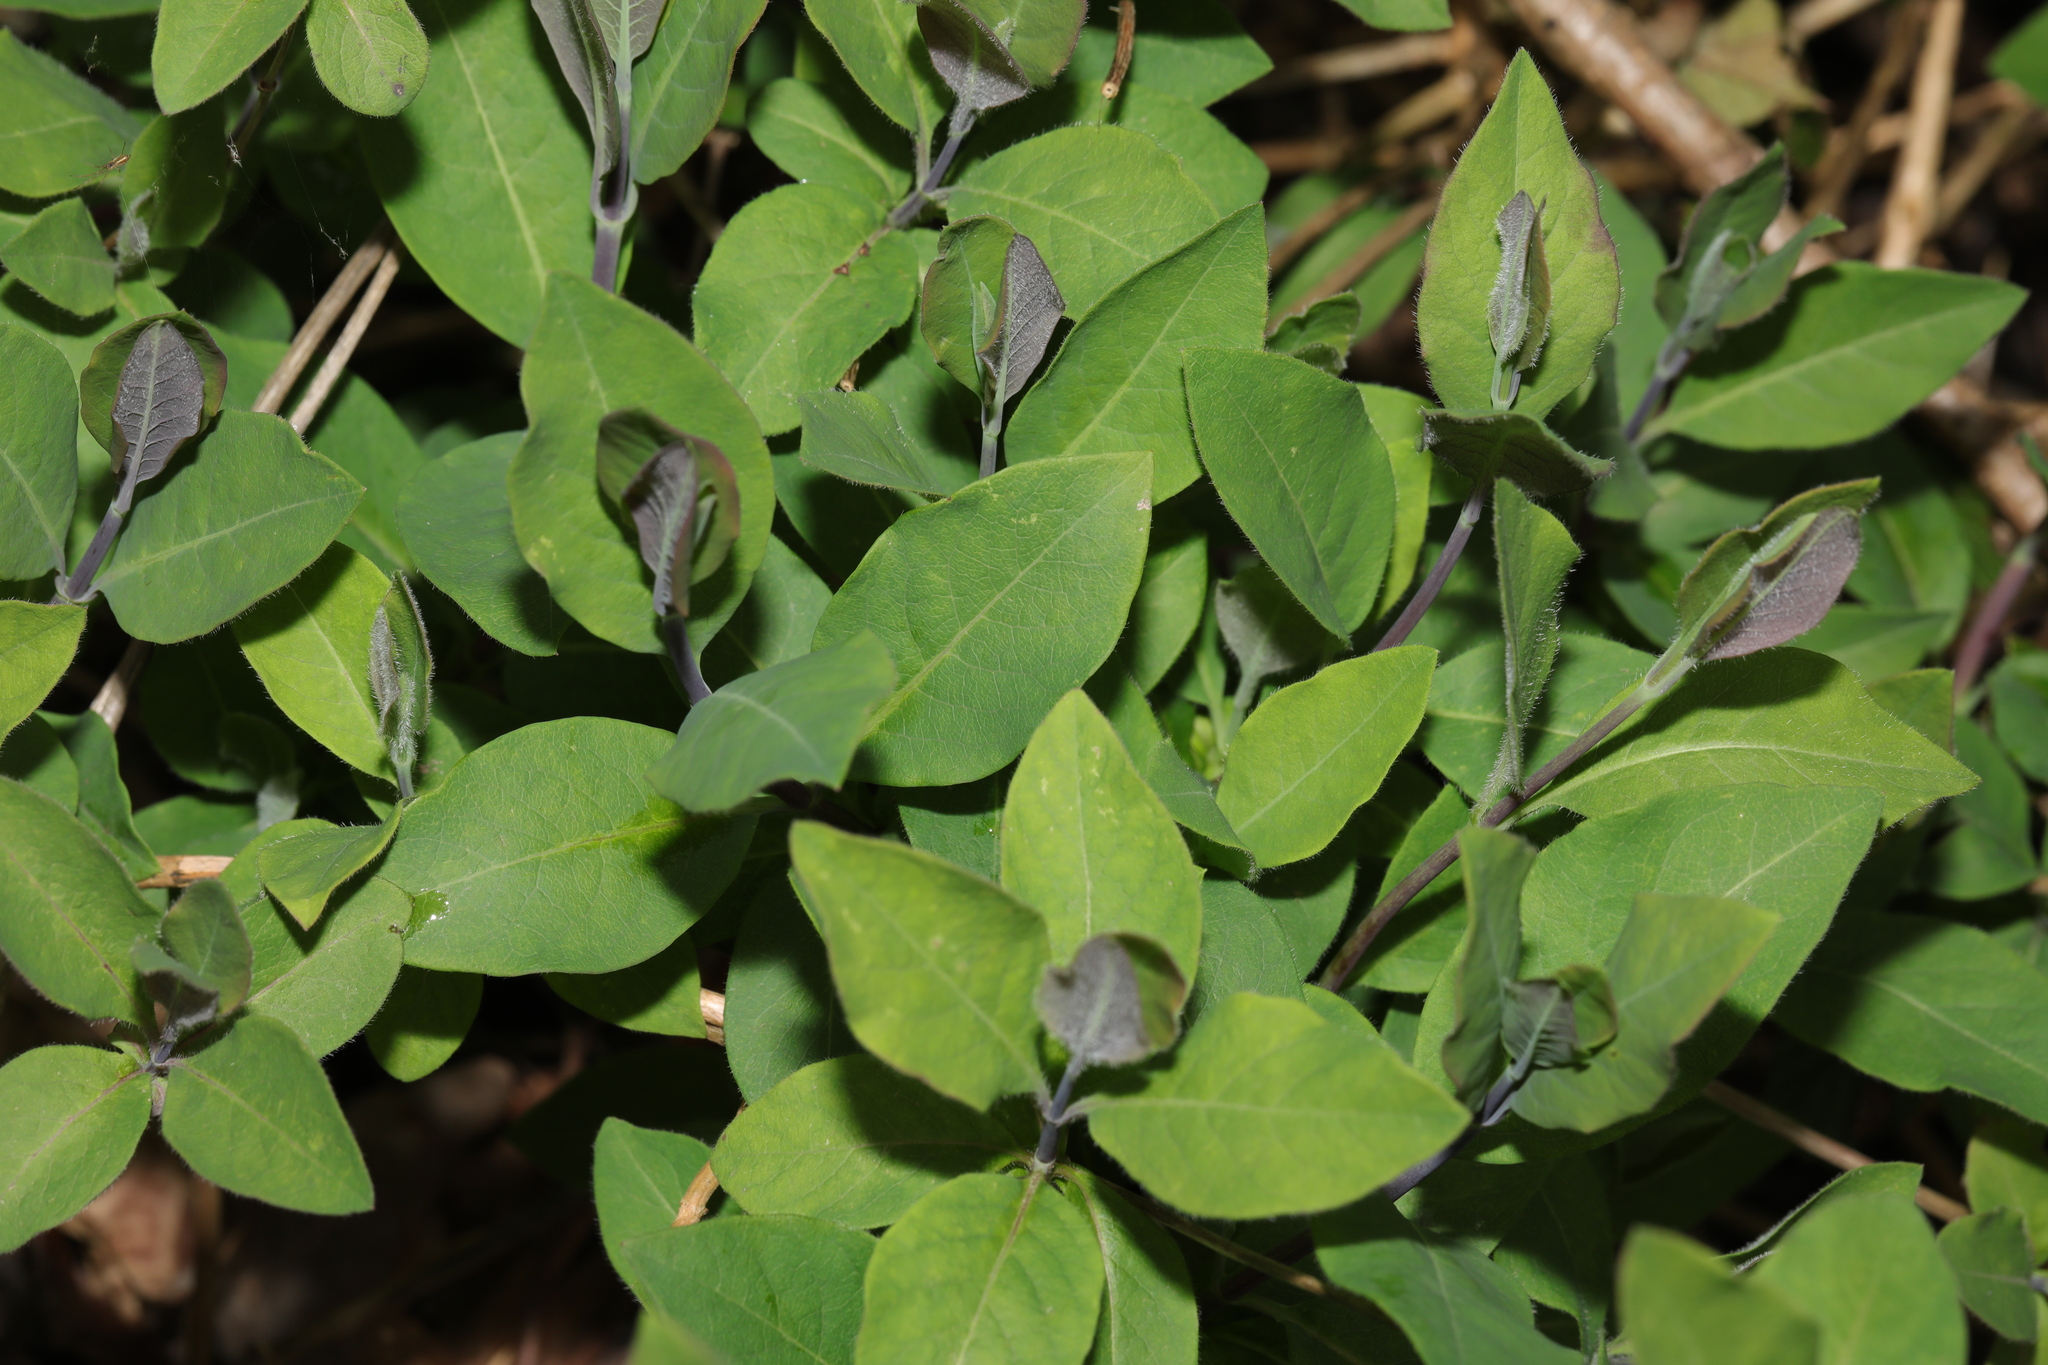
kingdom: Plantae
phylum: Tracheophyta
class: Magnoliopsida
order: Dipsacales
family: Caprifoliaceae
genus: Lonicera
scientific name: Lonicera periclymenum
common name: European honeysuckle
